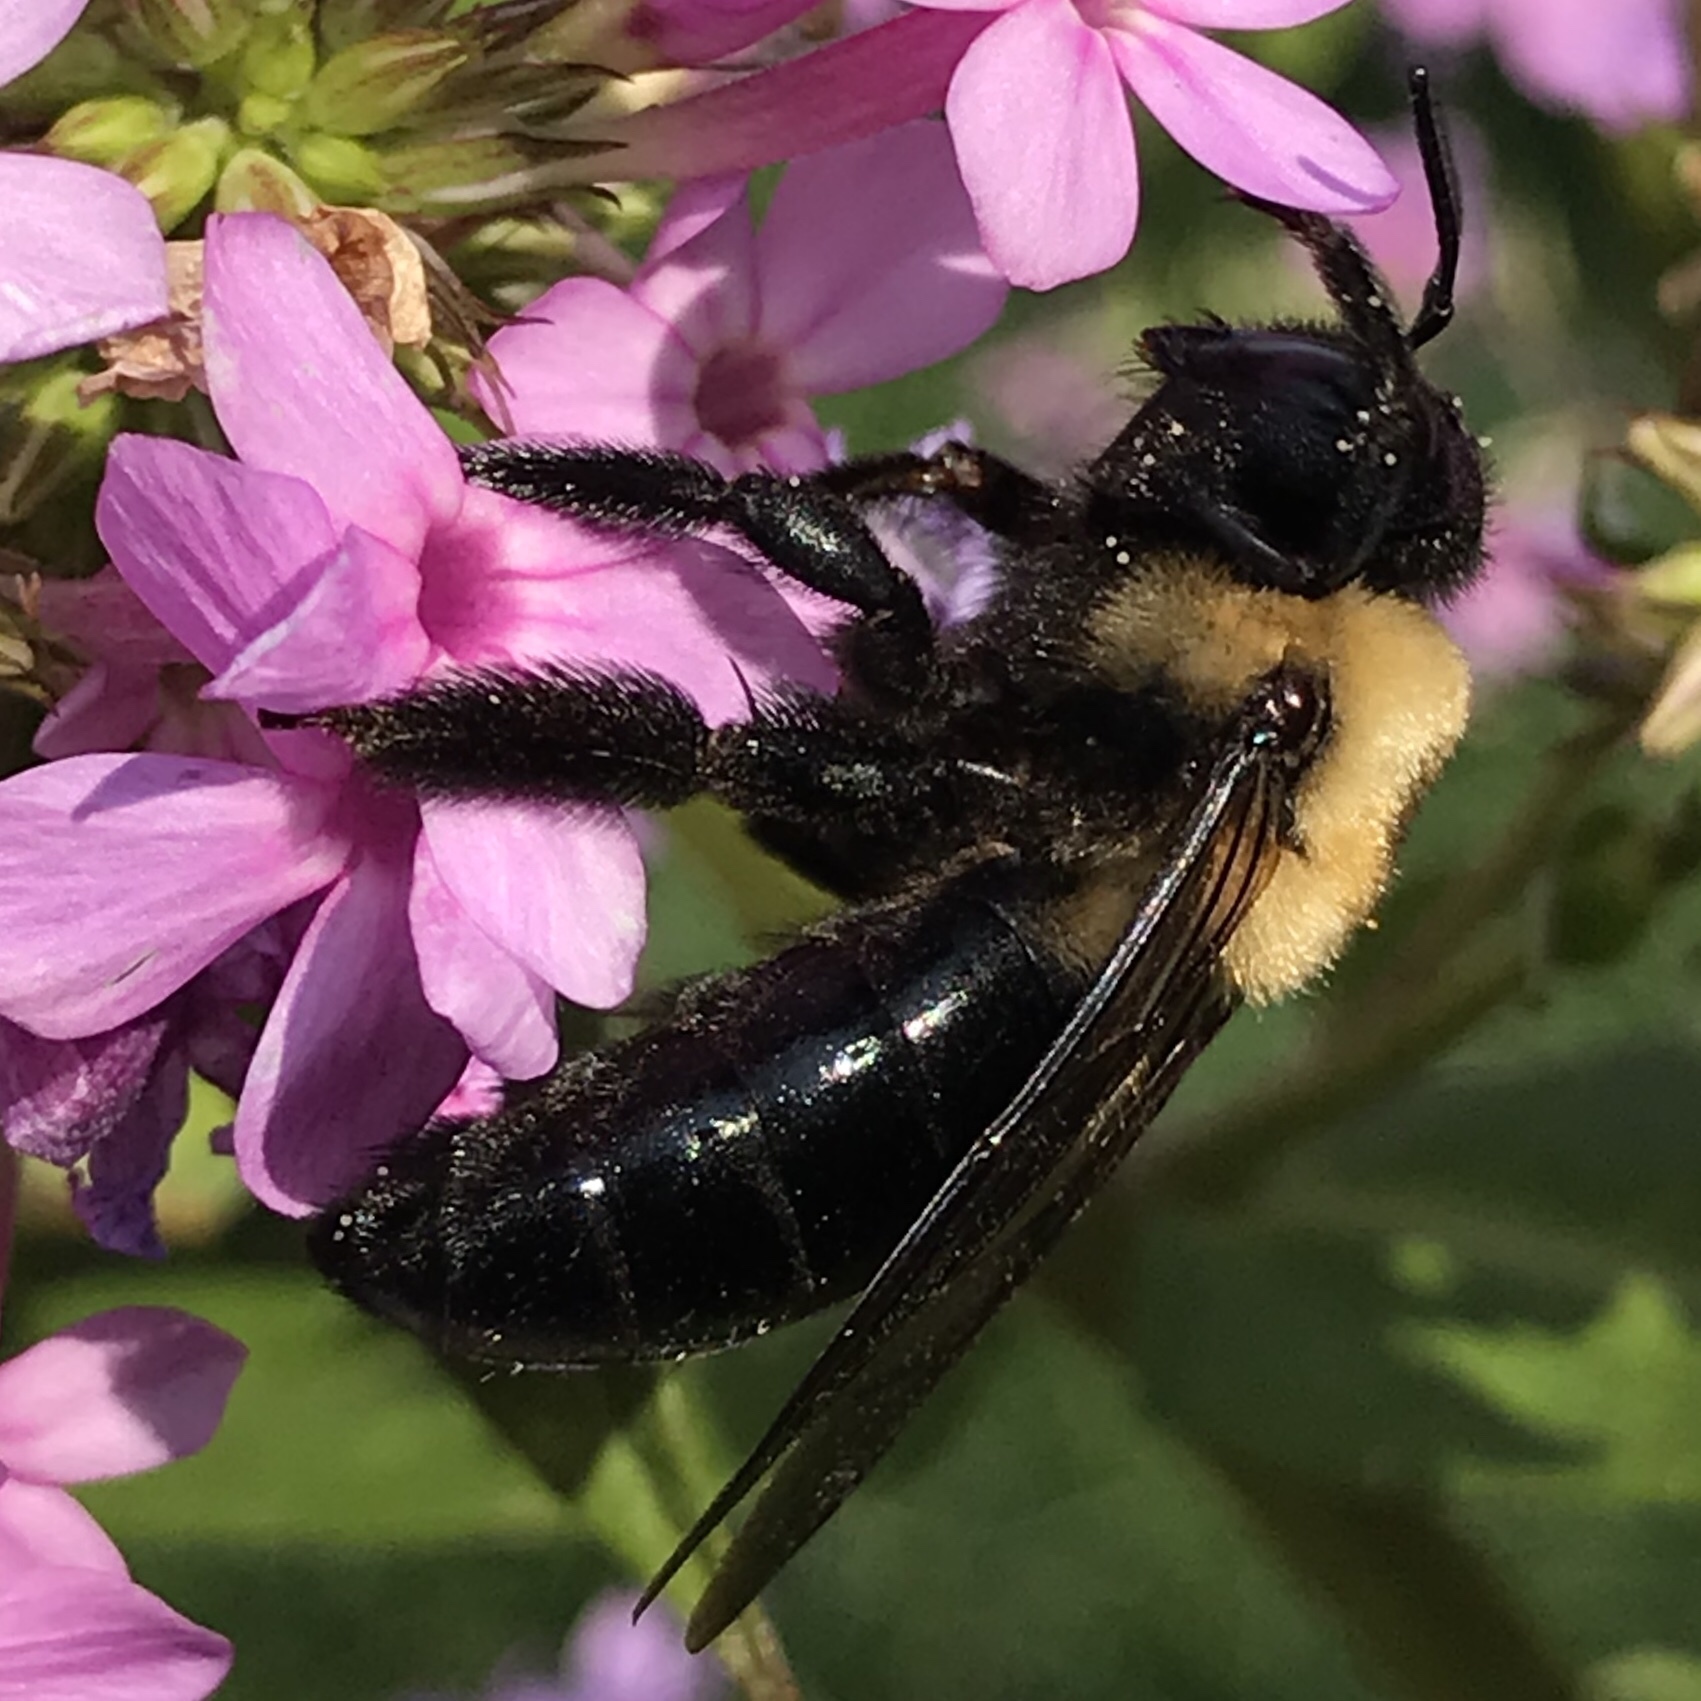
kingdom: Animalia
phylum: Arthropoda
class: Insecta
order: Hymenoptera
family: Apidae
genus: Xylocopa
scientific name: Xylocopa virginica
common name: Carpenter bee
